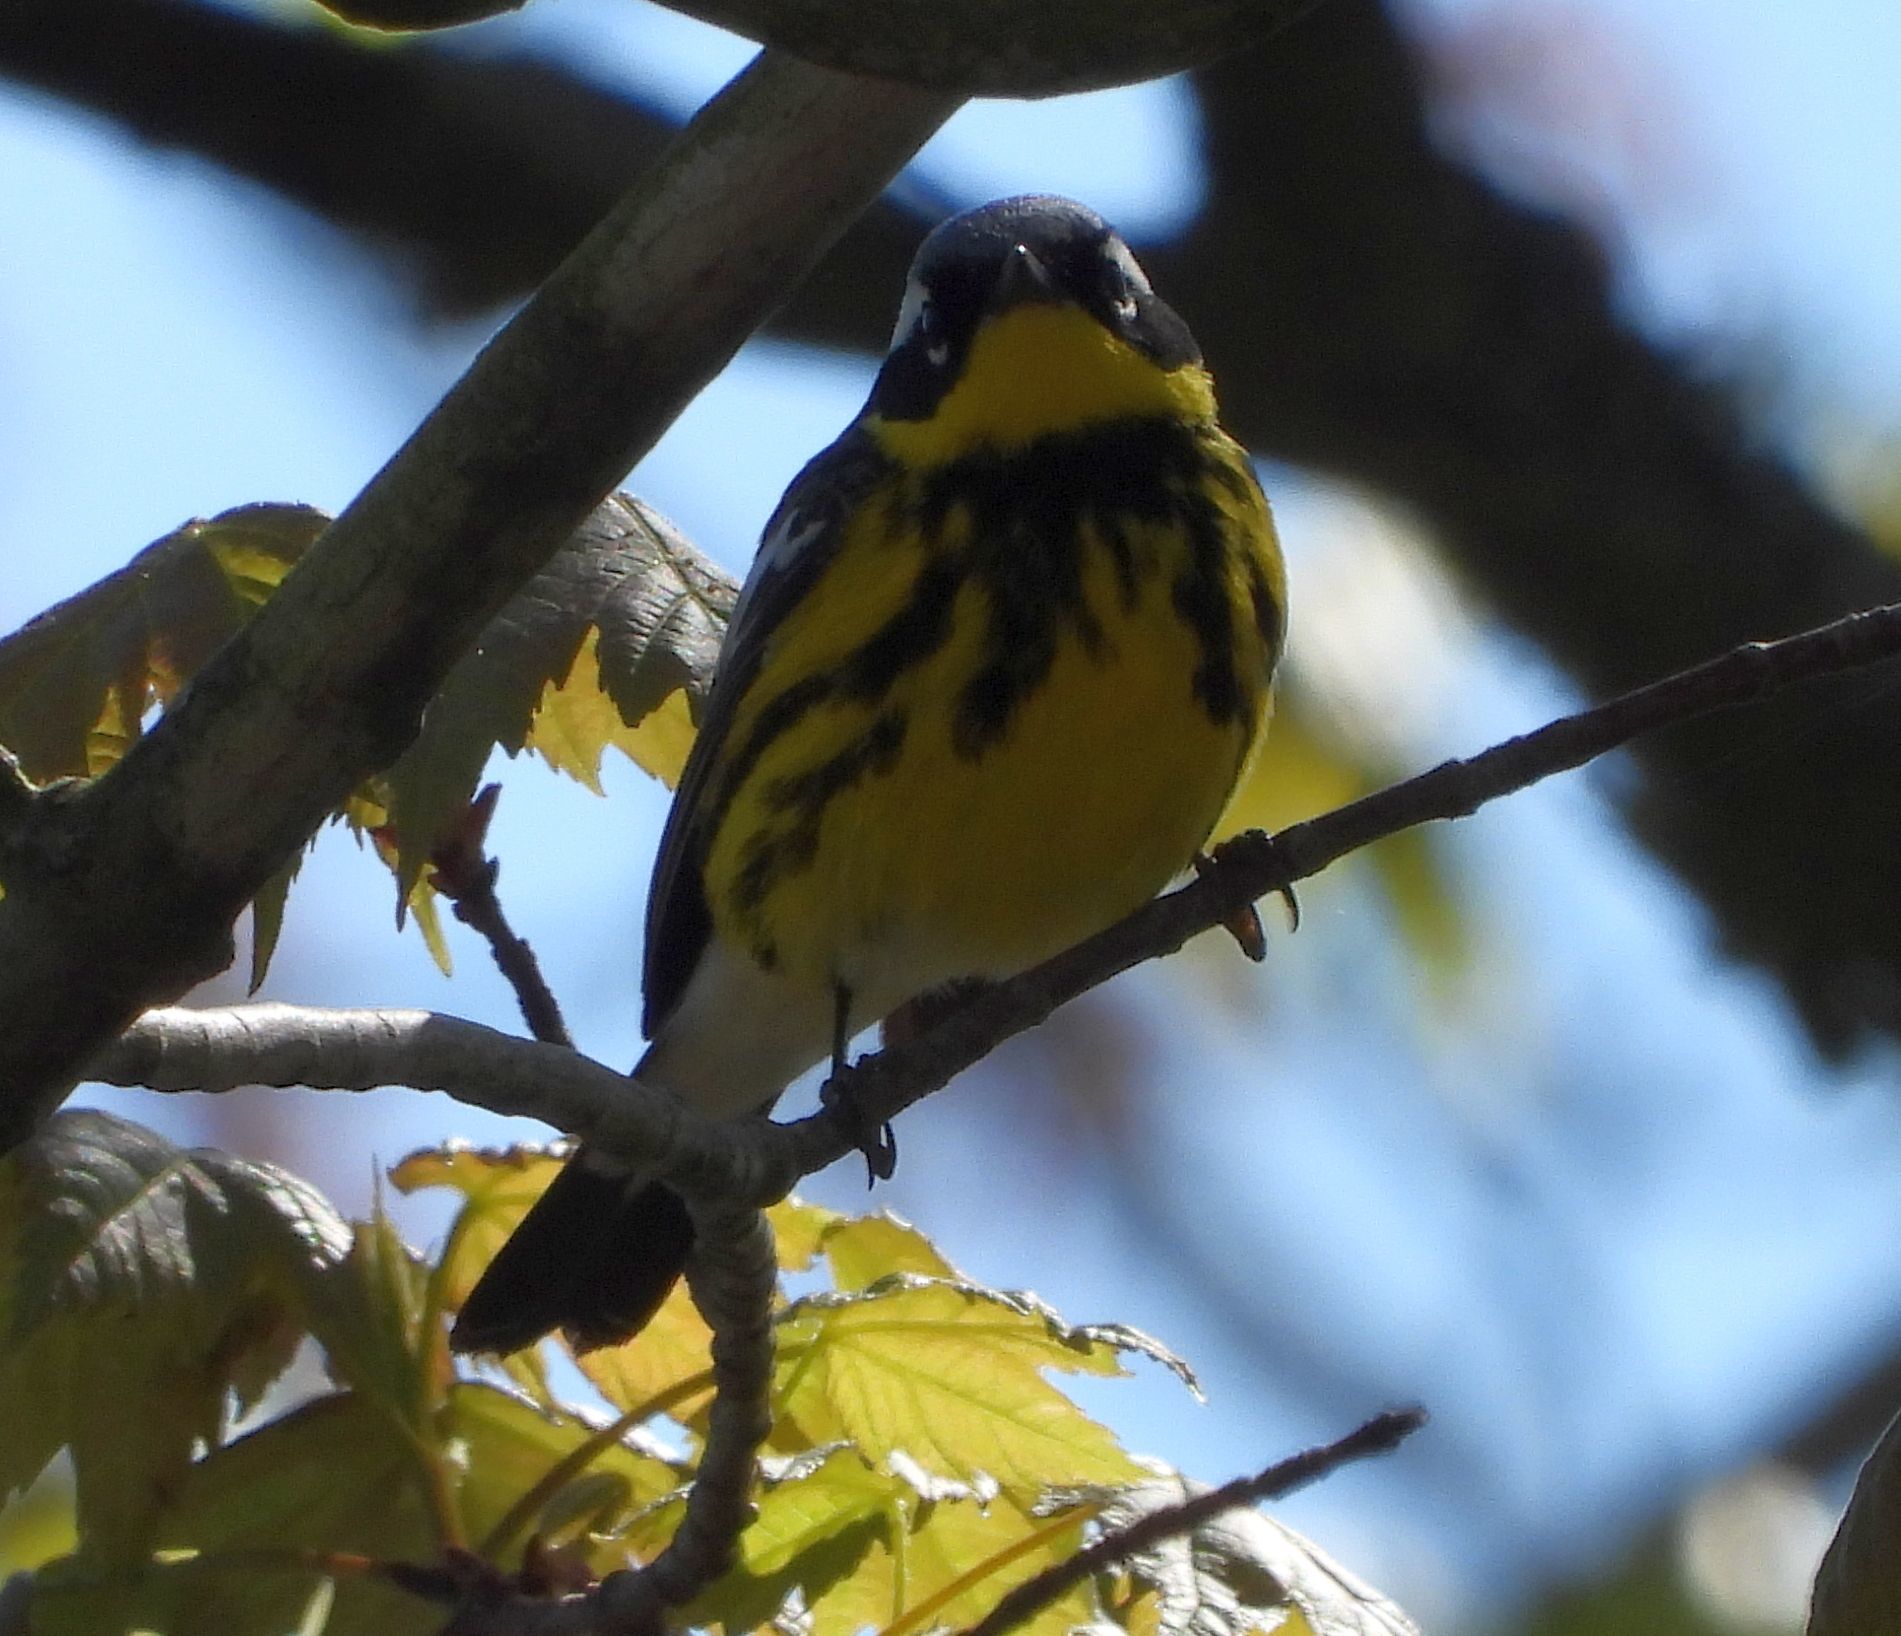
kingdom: Animalia
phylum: Chordata
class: Aves
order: Passeriformes
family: Parulidae
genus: Setophaga
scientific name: Setophaga magnolia
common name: Magnolia warbler
